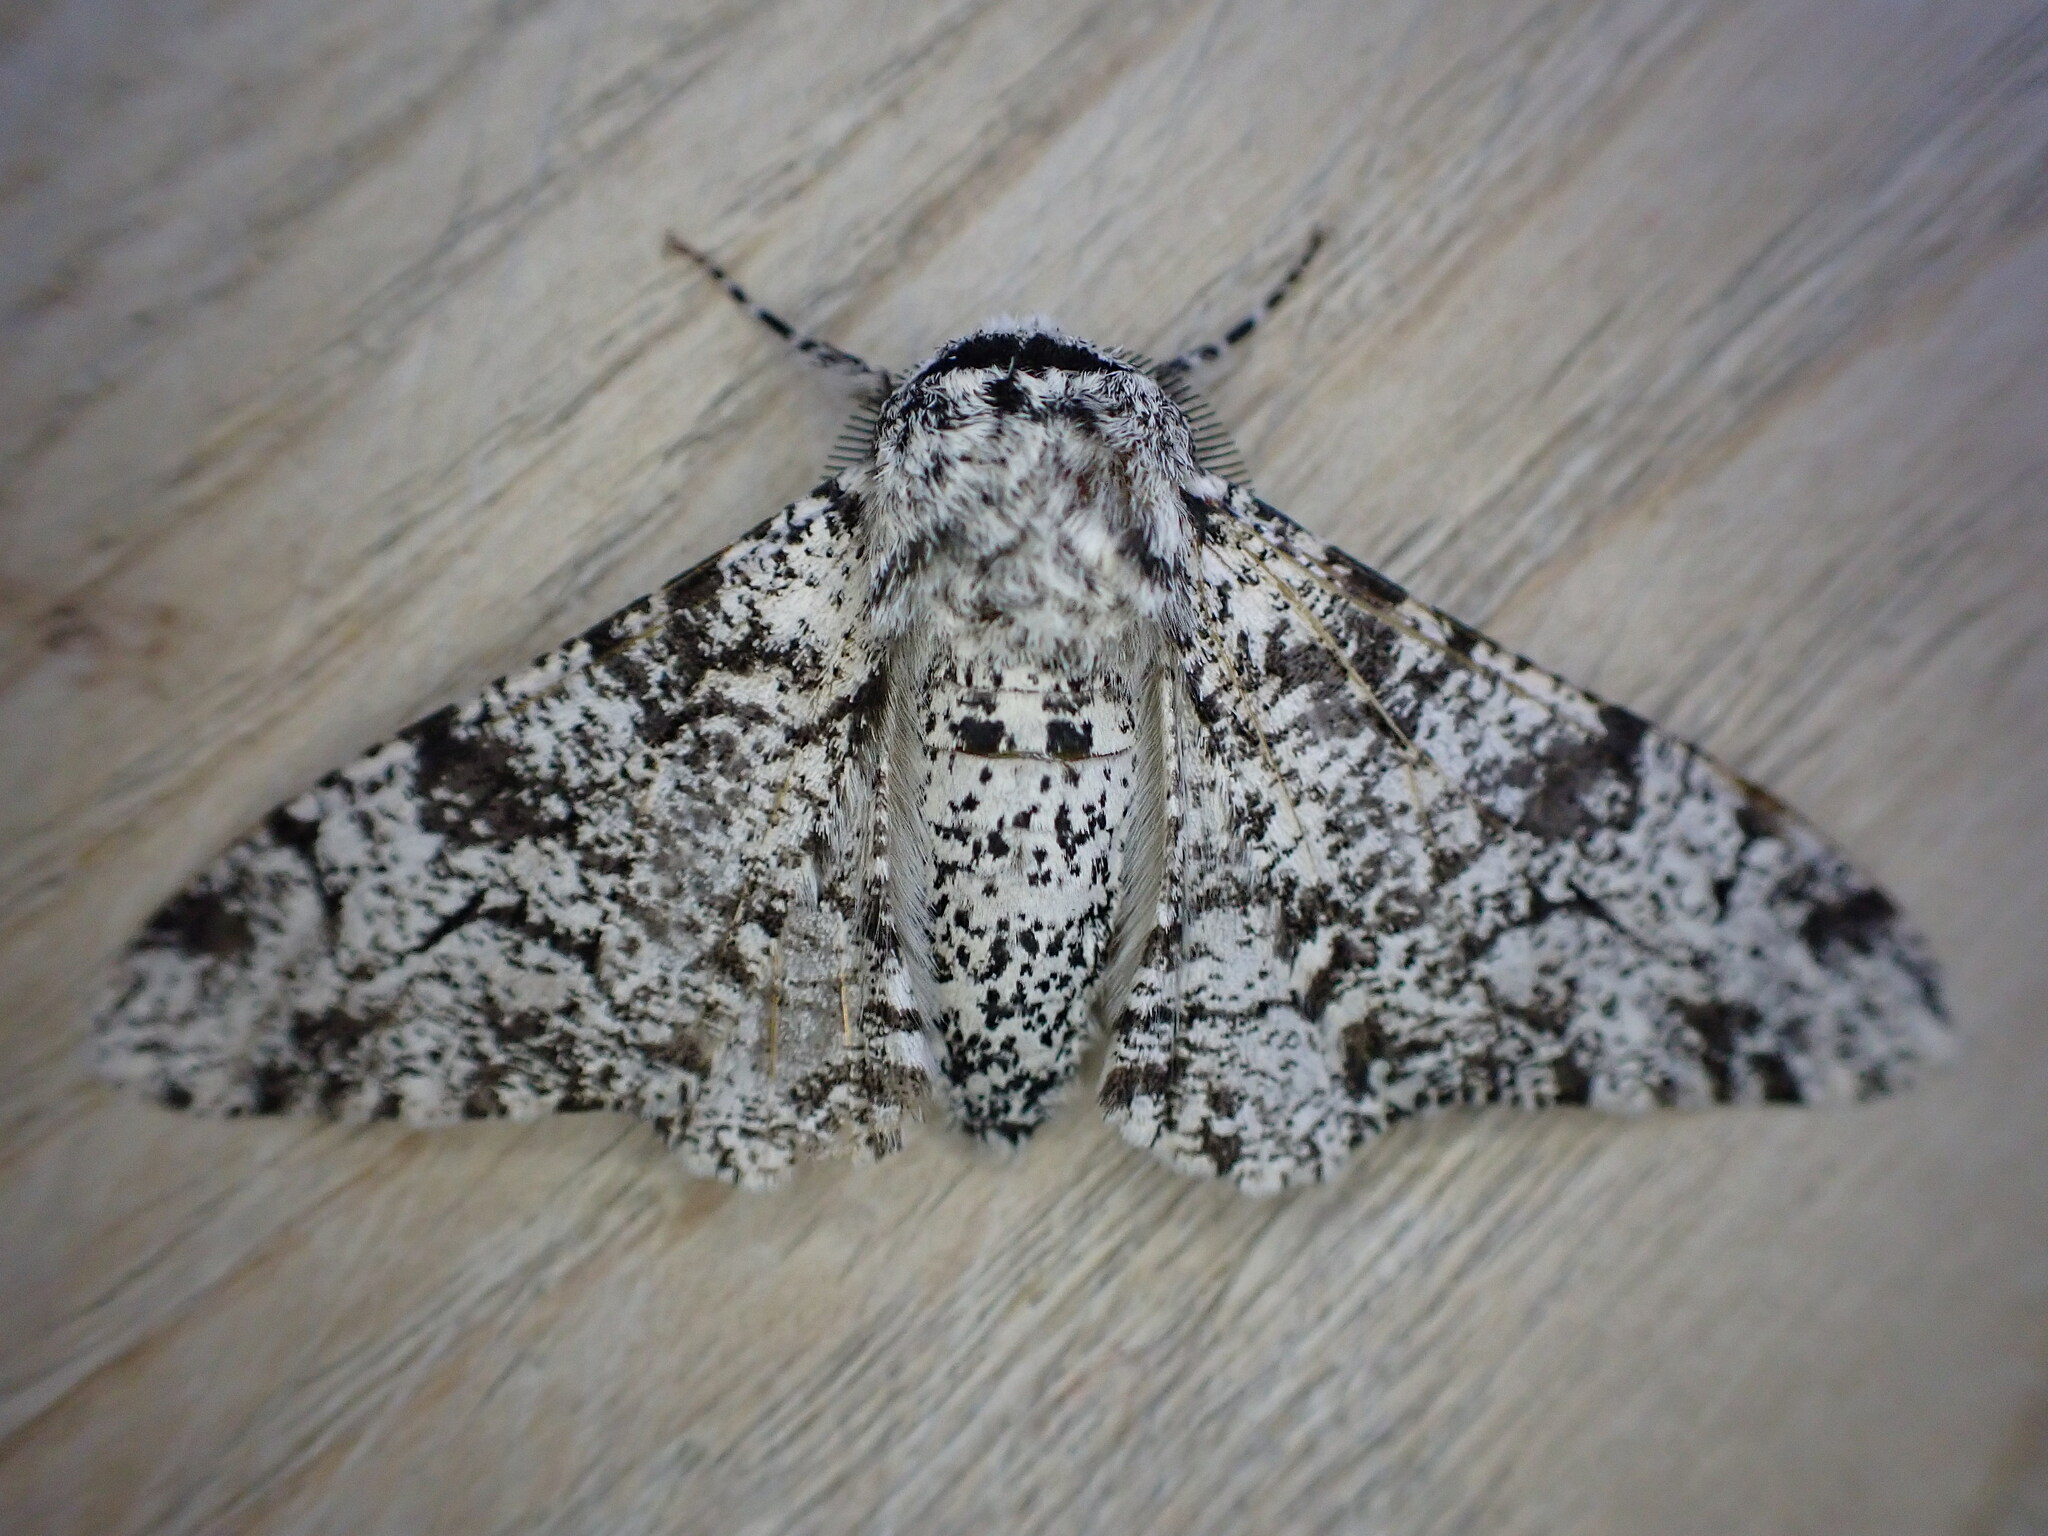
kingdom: Animalia
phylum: Arthropoda
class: Insecta
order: Lepidoptera
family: Geometridae
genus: Biston
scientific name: Biston betularia
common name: Peppered moth
